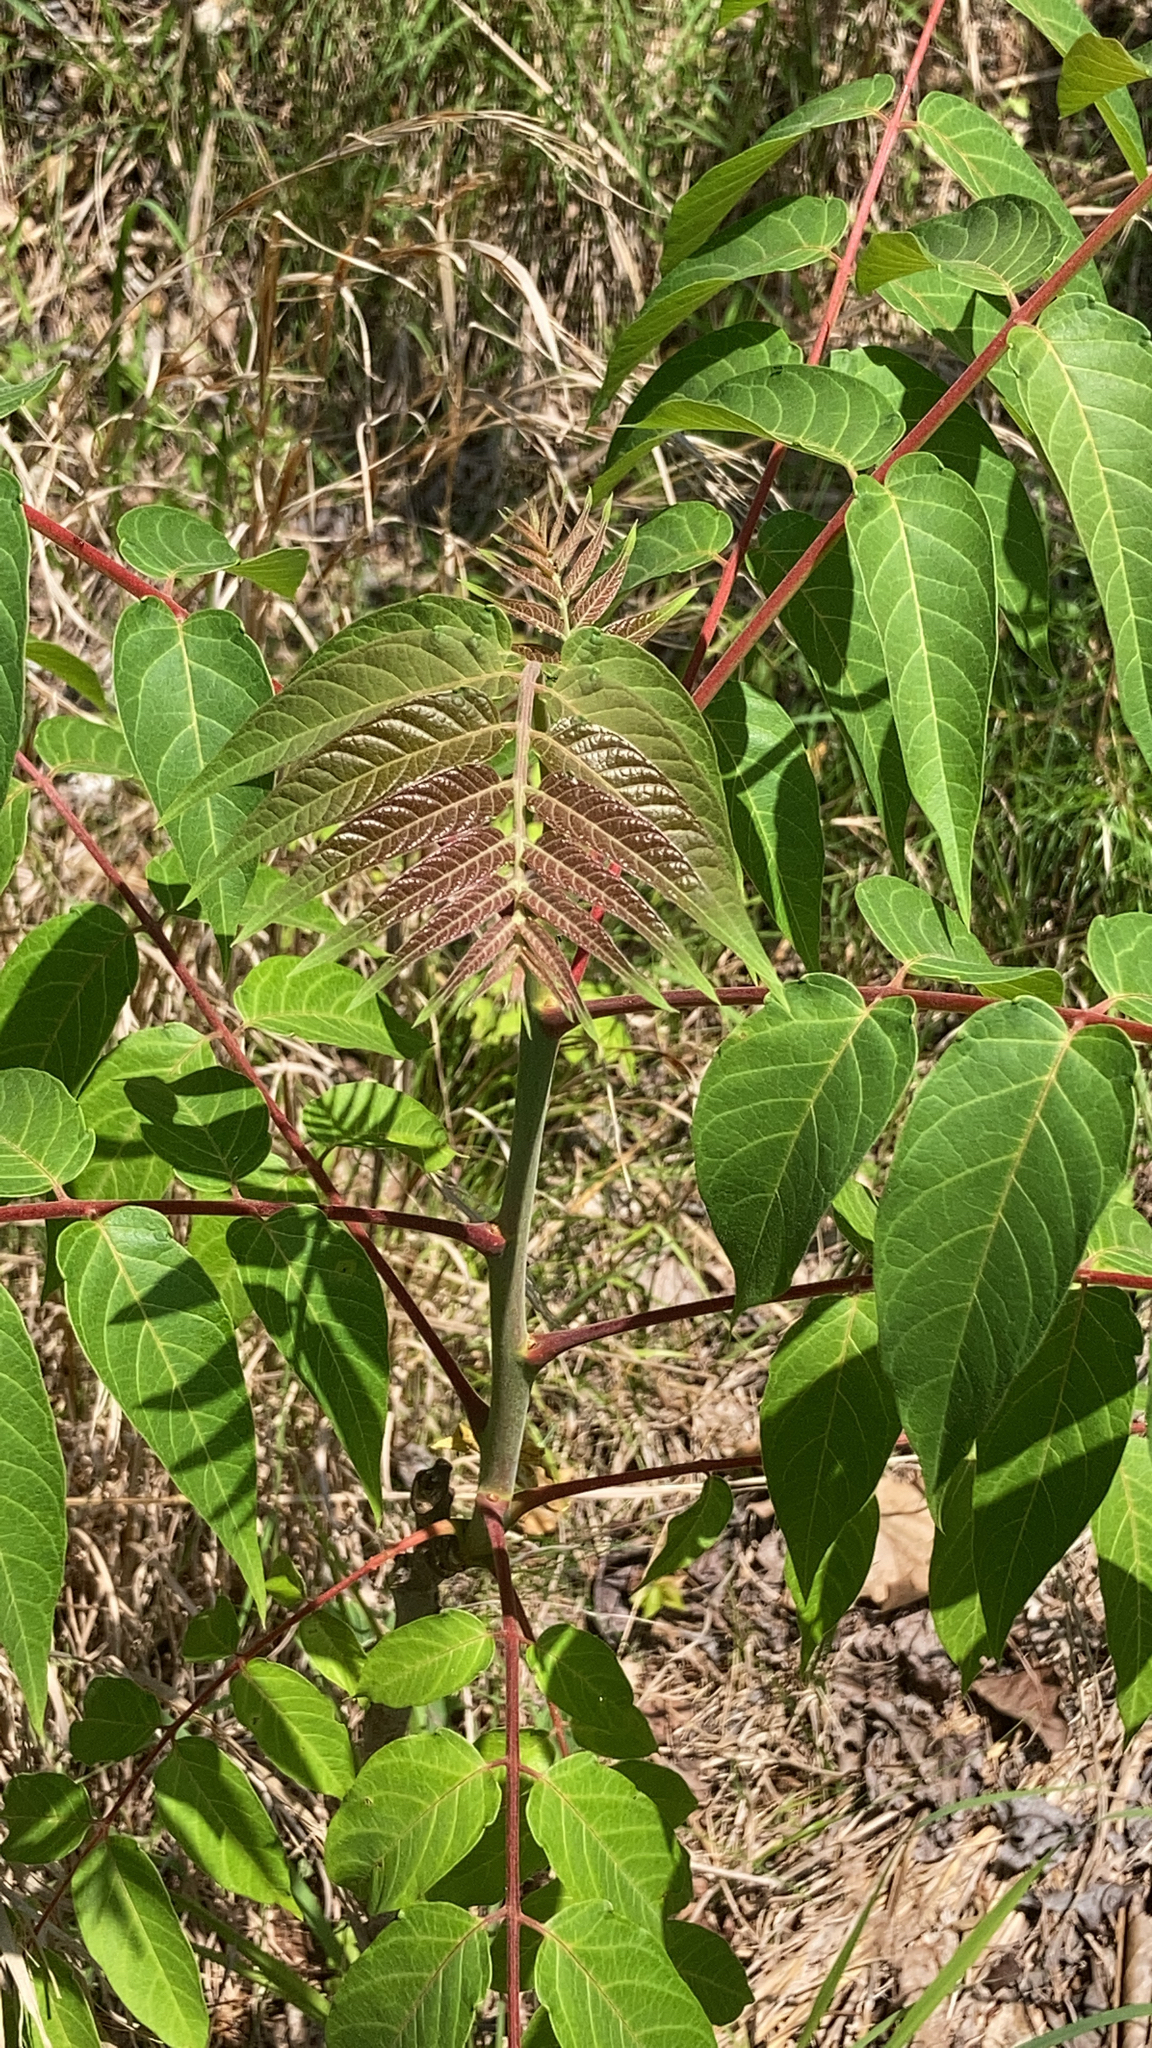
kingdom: Plantae
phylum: Tracheophyta
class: Magnoliopsida
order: Sapindales
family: Simaroubaceae
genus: Ailanthus
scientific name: Ailanthus altissima
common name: Tree-of-heaven
